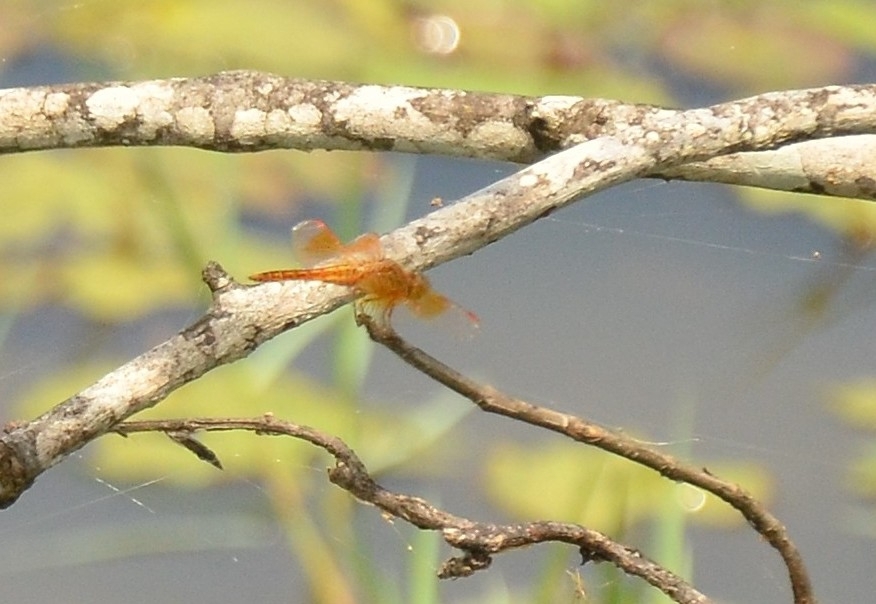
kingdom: Animalia
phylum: Arthropoda
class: Insecta
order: Odonata
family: Libellulidae
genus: Brachythemis
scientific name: Brachythemis contaminata
